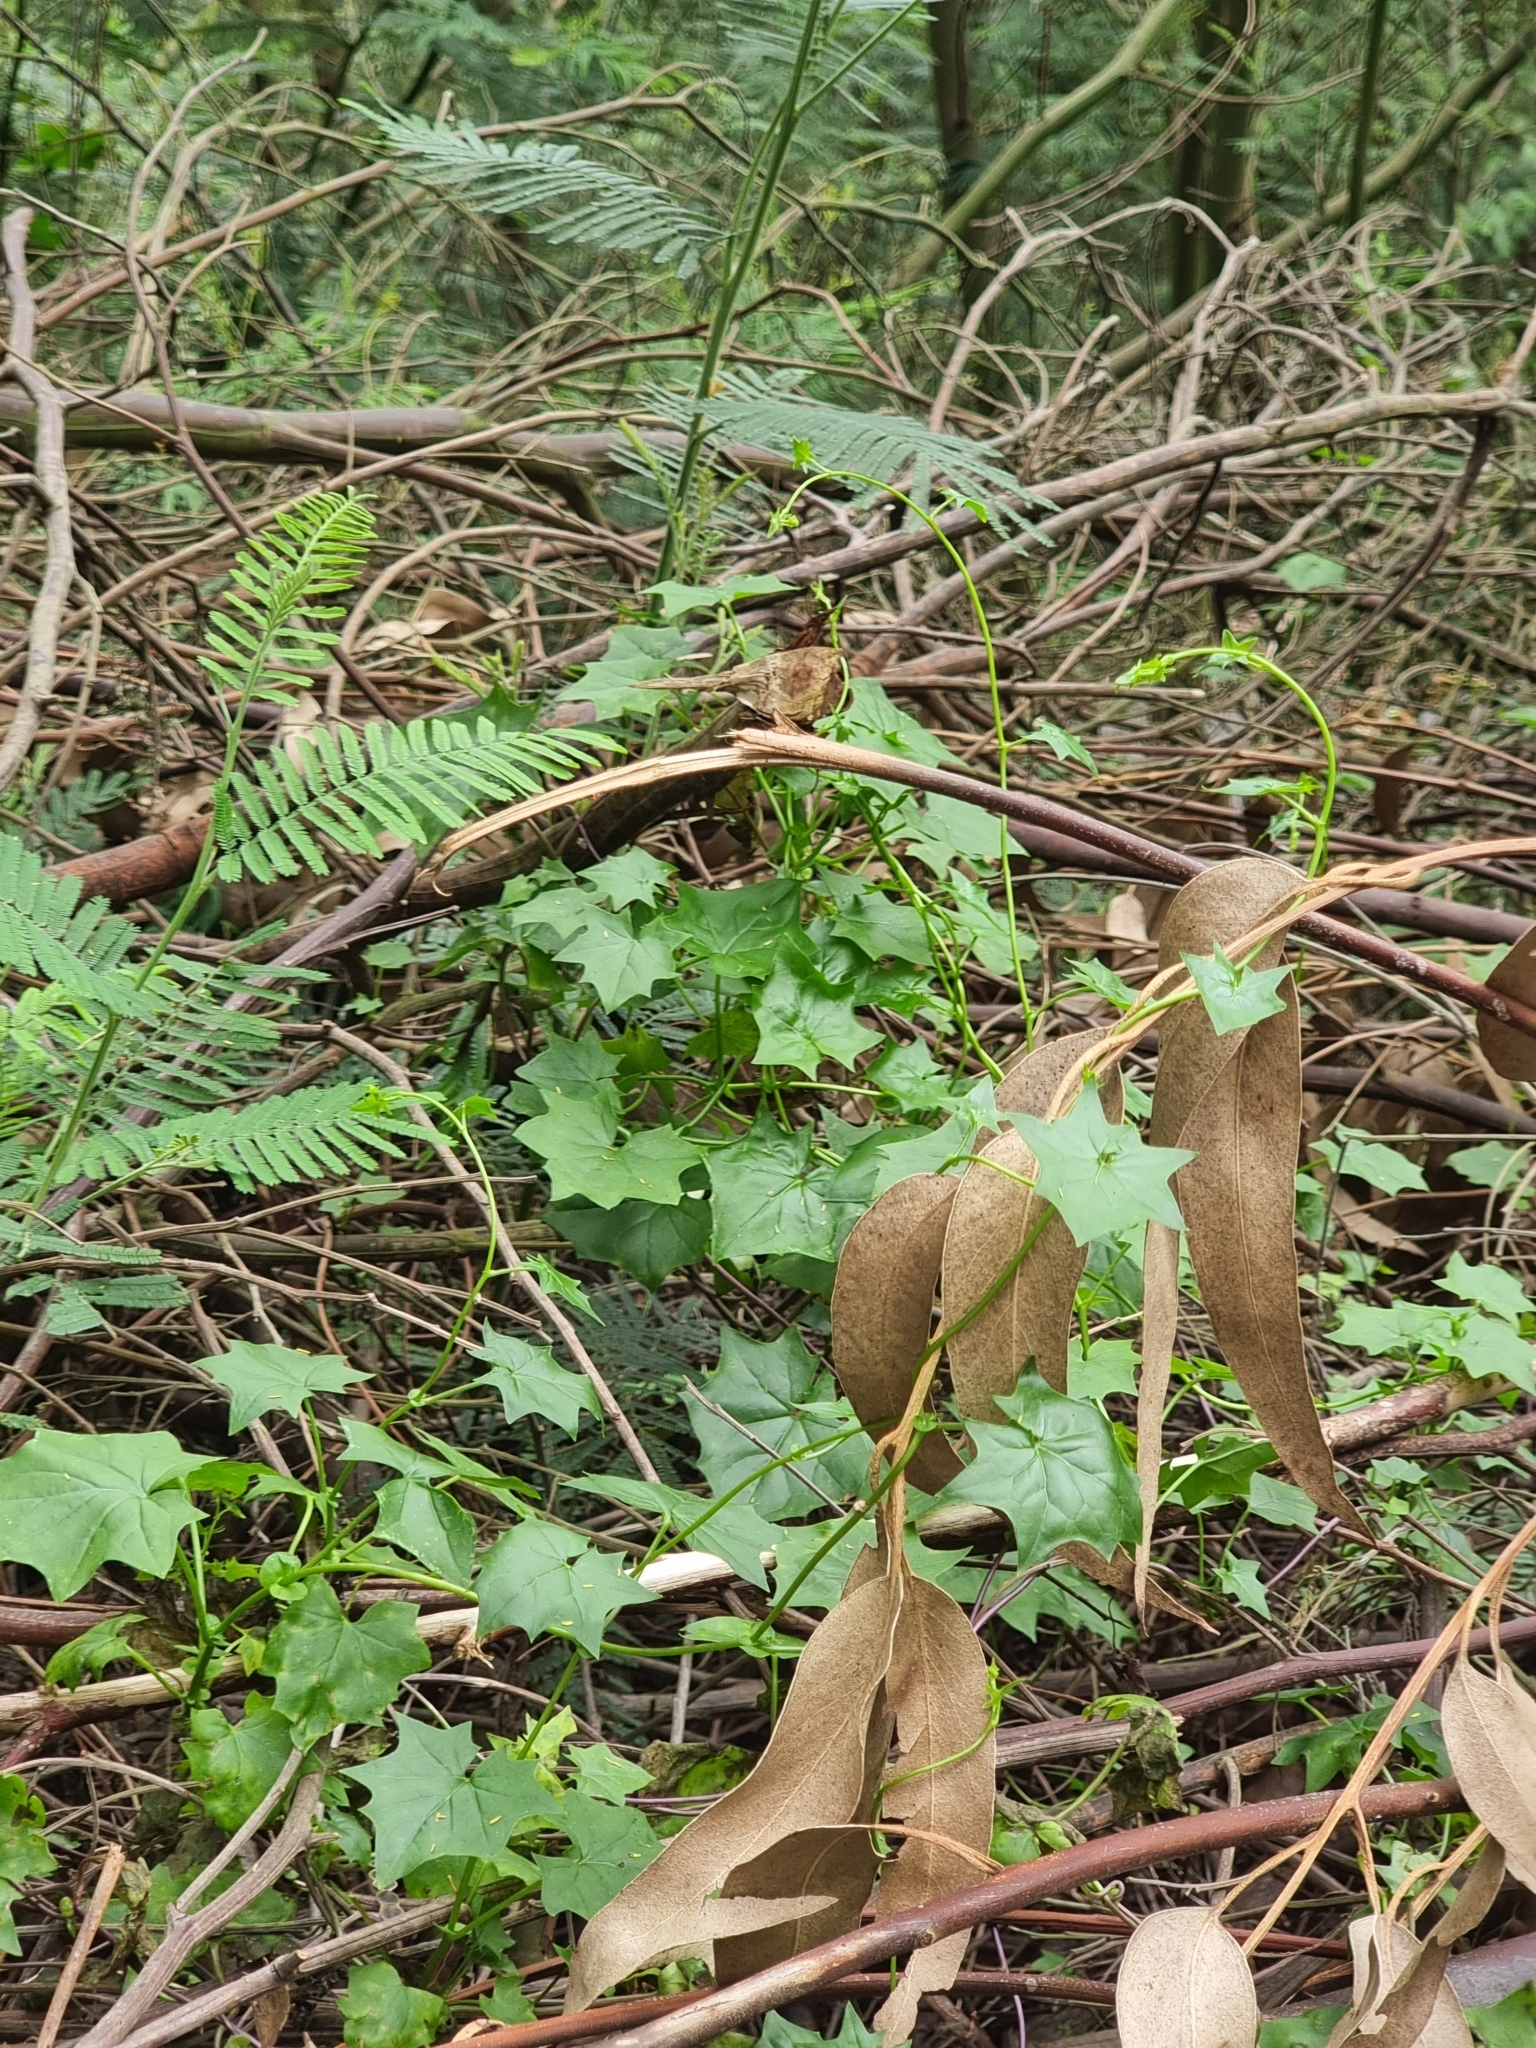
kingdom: Plantae
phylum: Tracheophyta
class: Magnoliopsida
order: Asterales
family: Asteraceae
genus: Delairea
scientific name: Delairea odorata
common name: Cape-ivy
